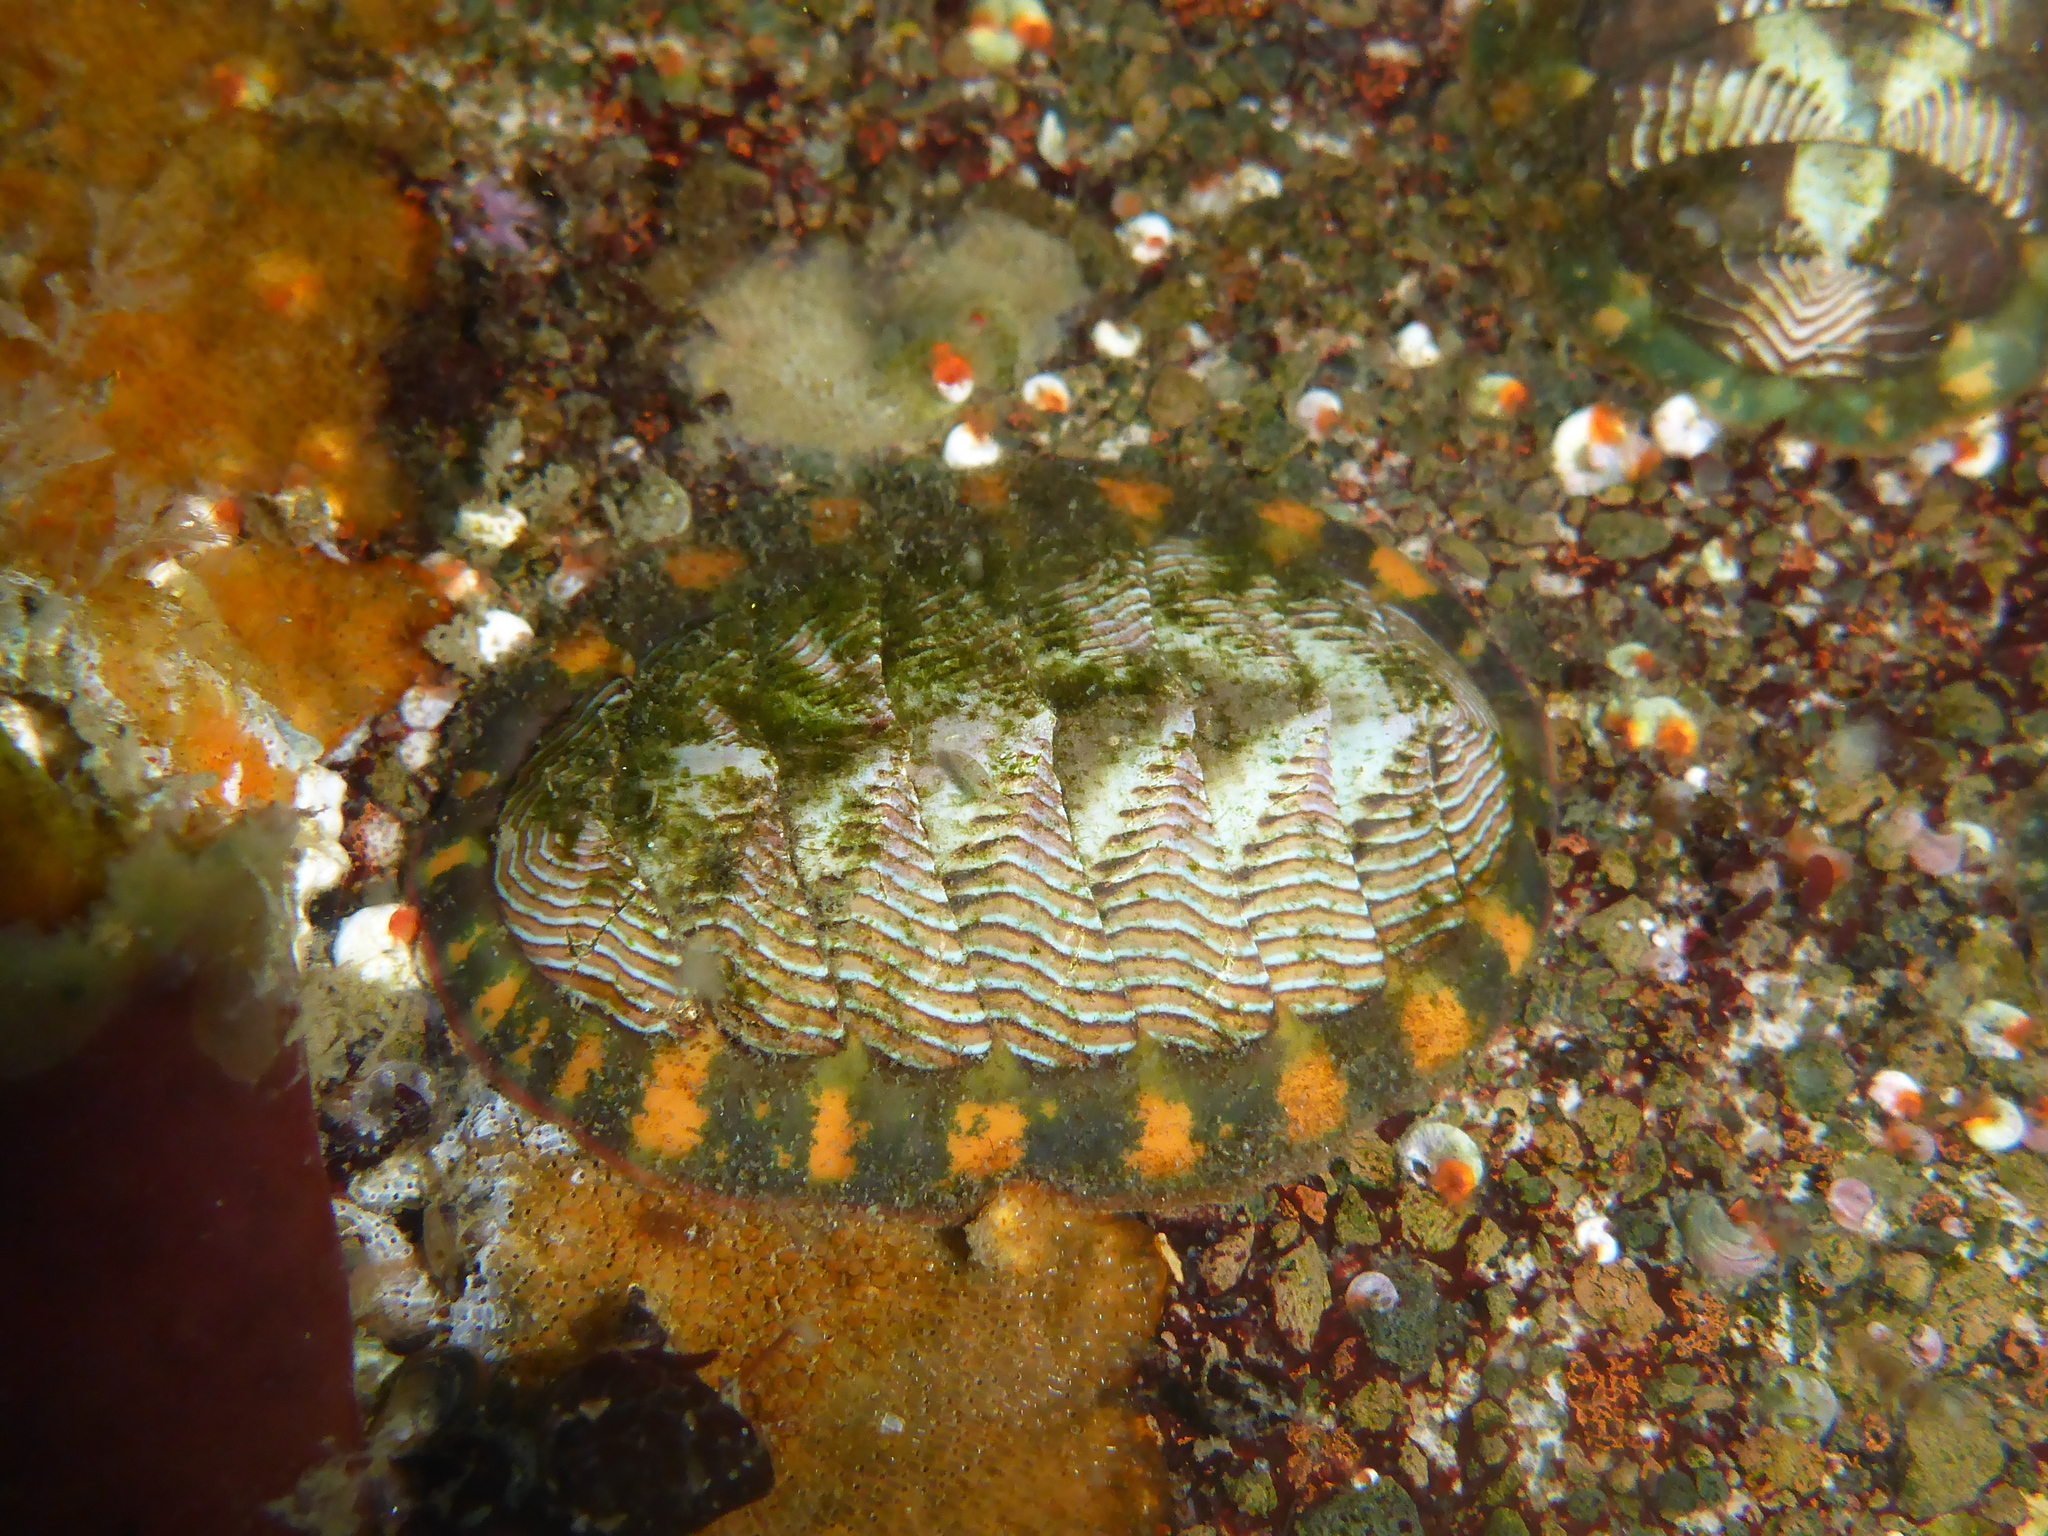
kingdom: Animalia
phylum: Mollusca
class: Polyplacophora
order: Chitonida
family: Tonicellidae
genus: Tonicella
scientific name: Tonicella lineata
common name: Lined chiton
